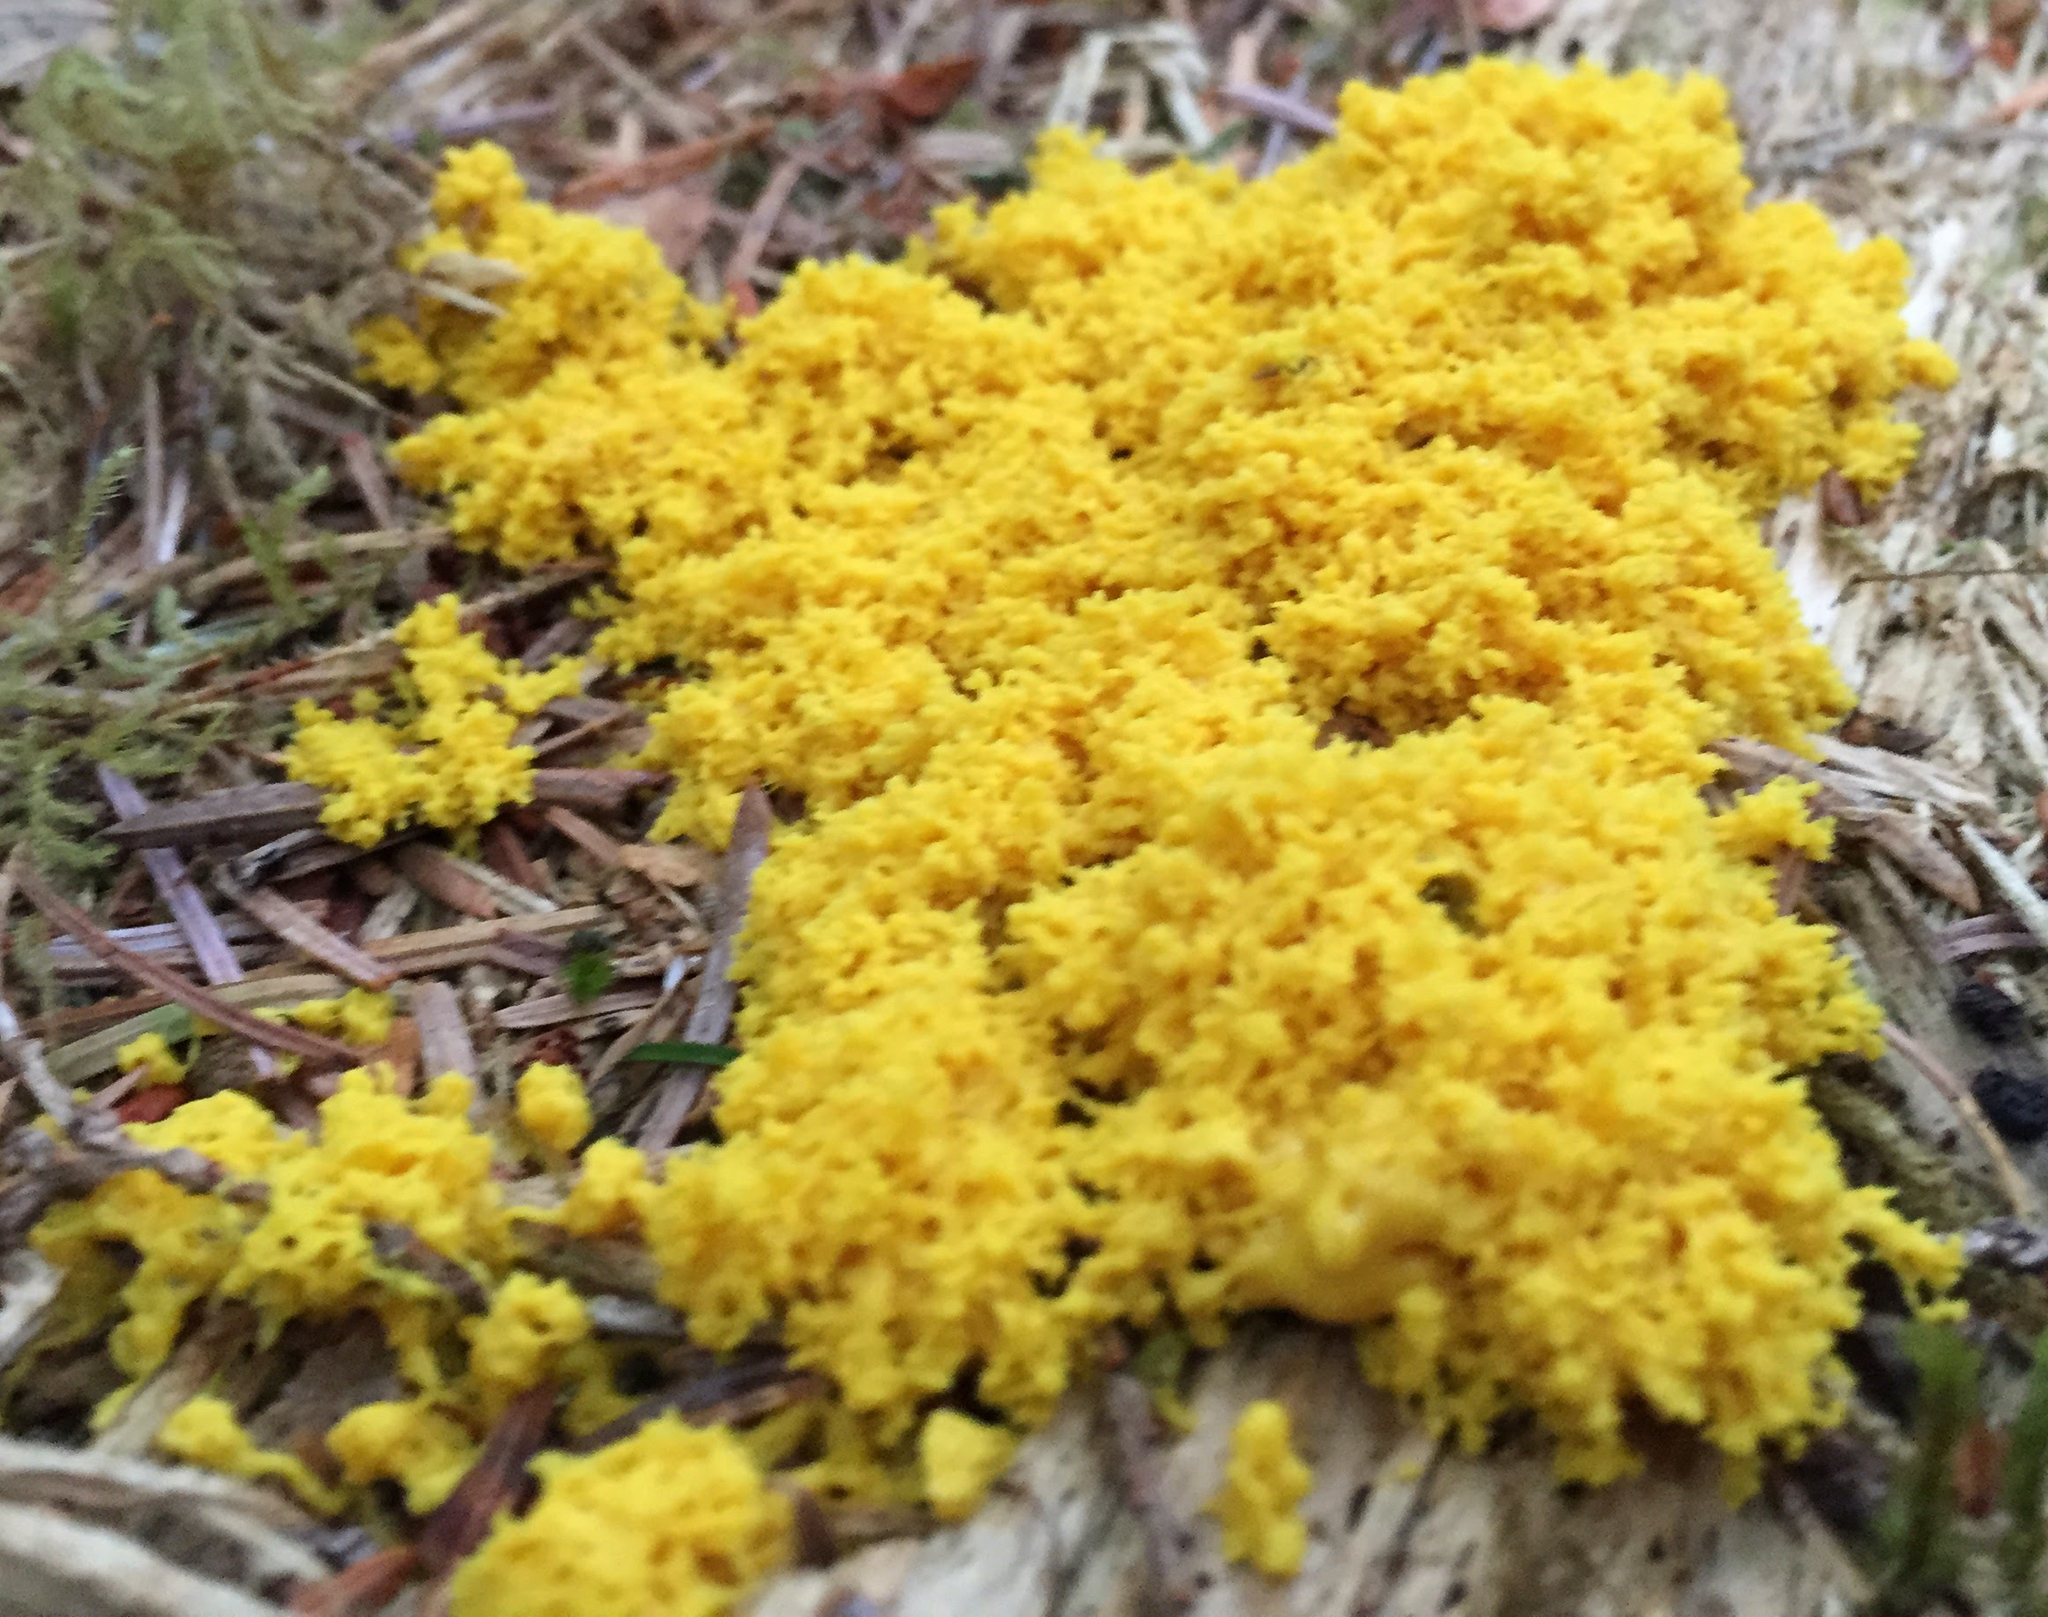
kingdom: Protozoa
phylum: Mycetozoa
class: Myxomycetes
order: Physarales
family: Physaraceae
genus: Fuligo
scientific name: Fuligo septica
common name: Dog vomit slime mold
